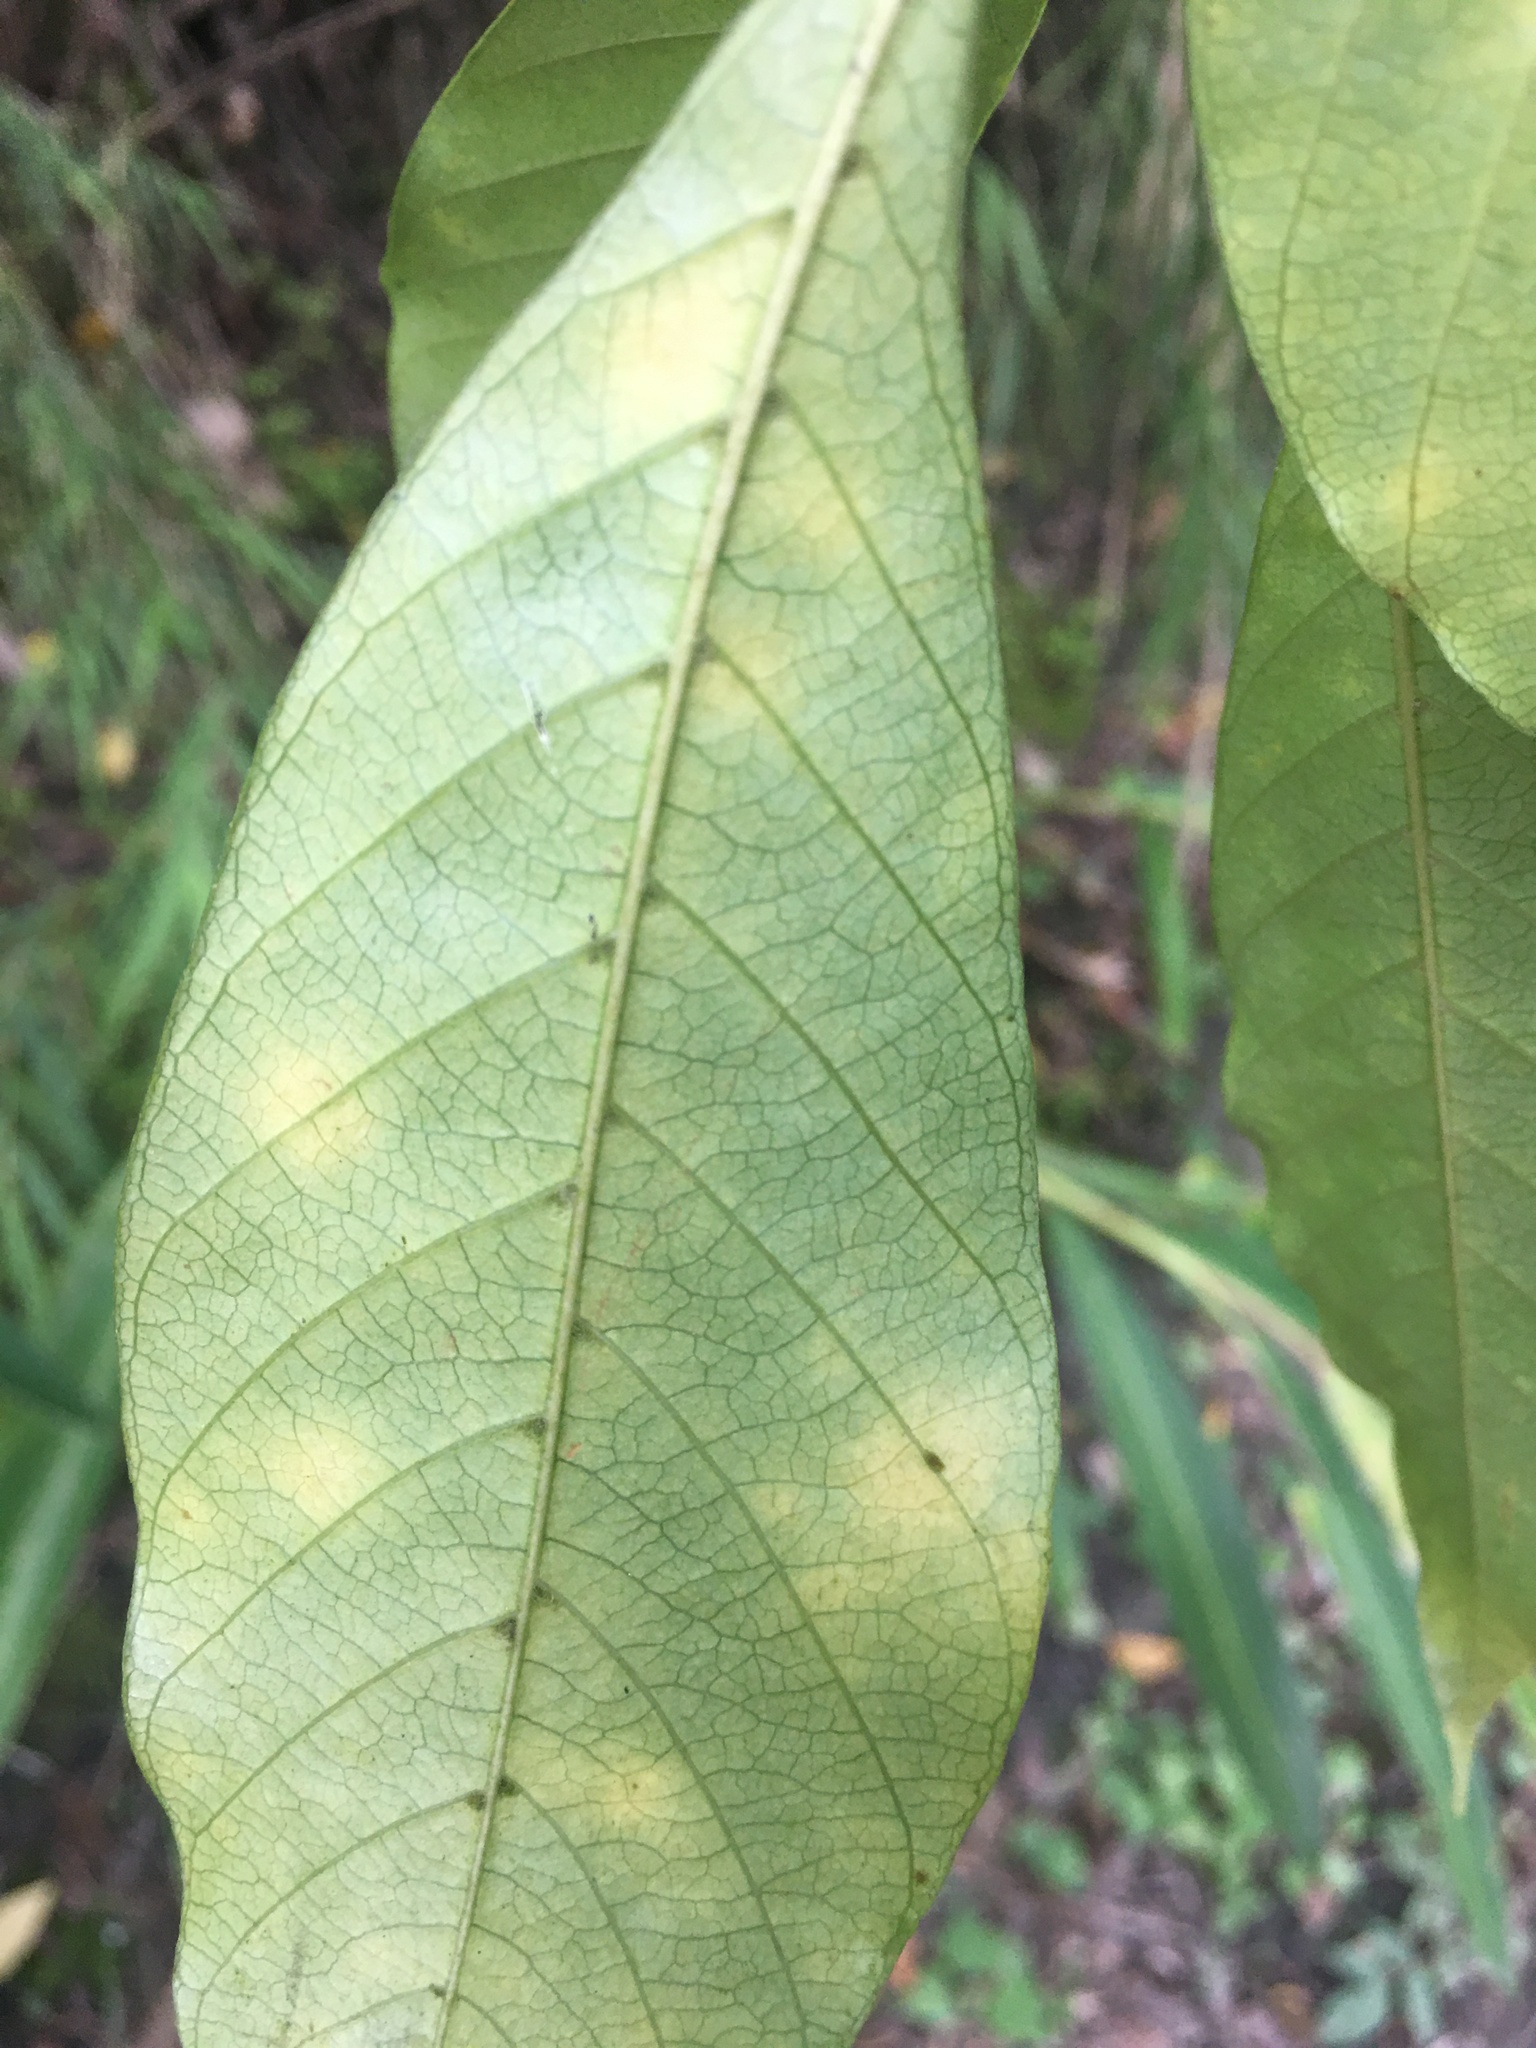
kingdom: Plantae
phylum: Tracheophyta
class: Magnoliopsida
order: Gentianales
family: Rubiaceae
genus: Gardenia
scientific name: Gardenia jasminoides
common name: Cape-jasmine
